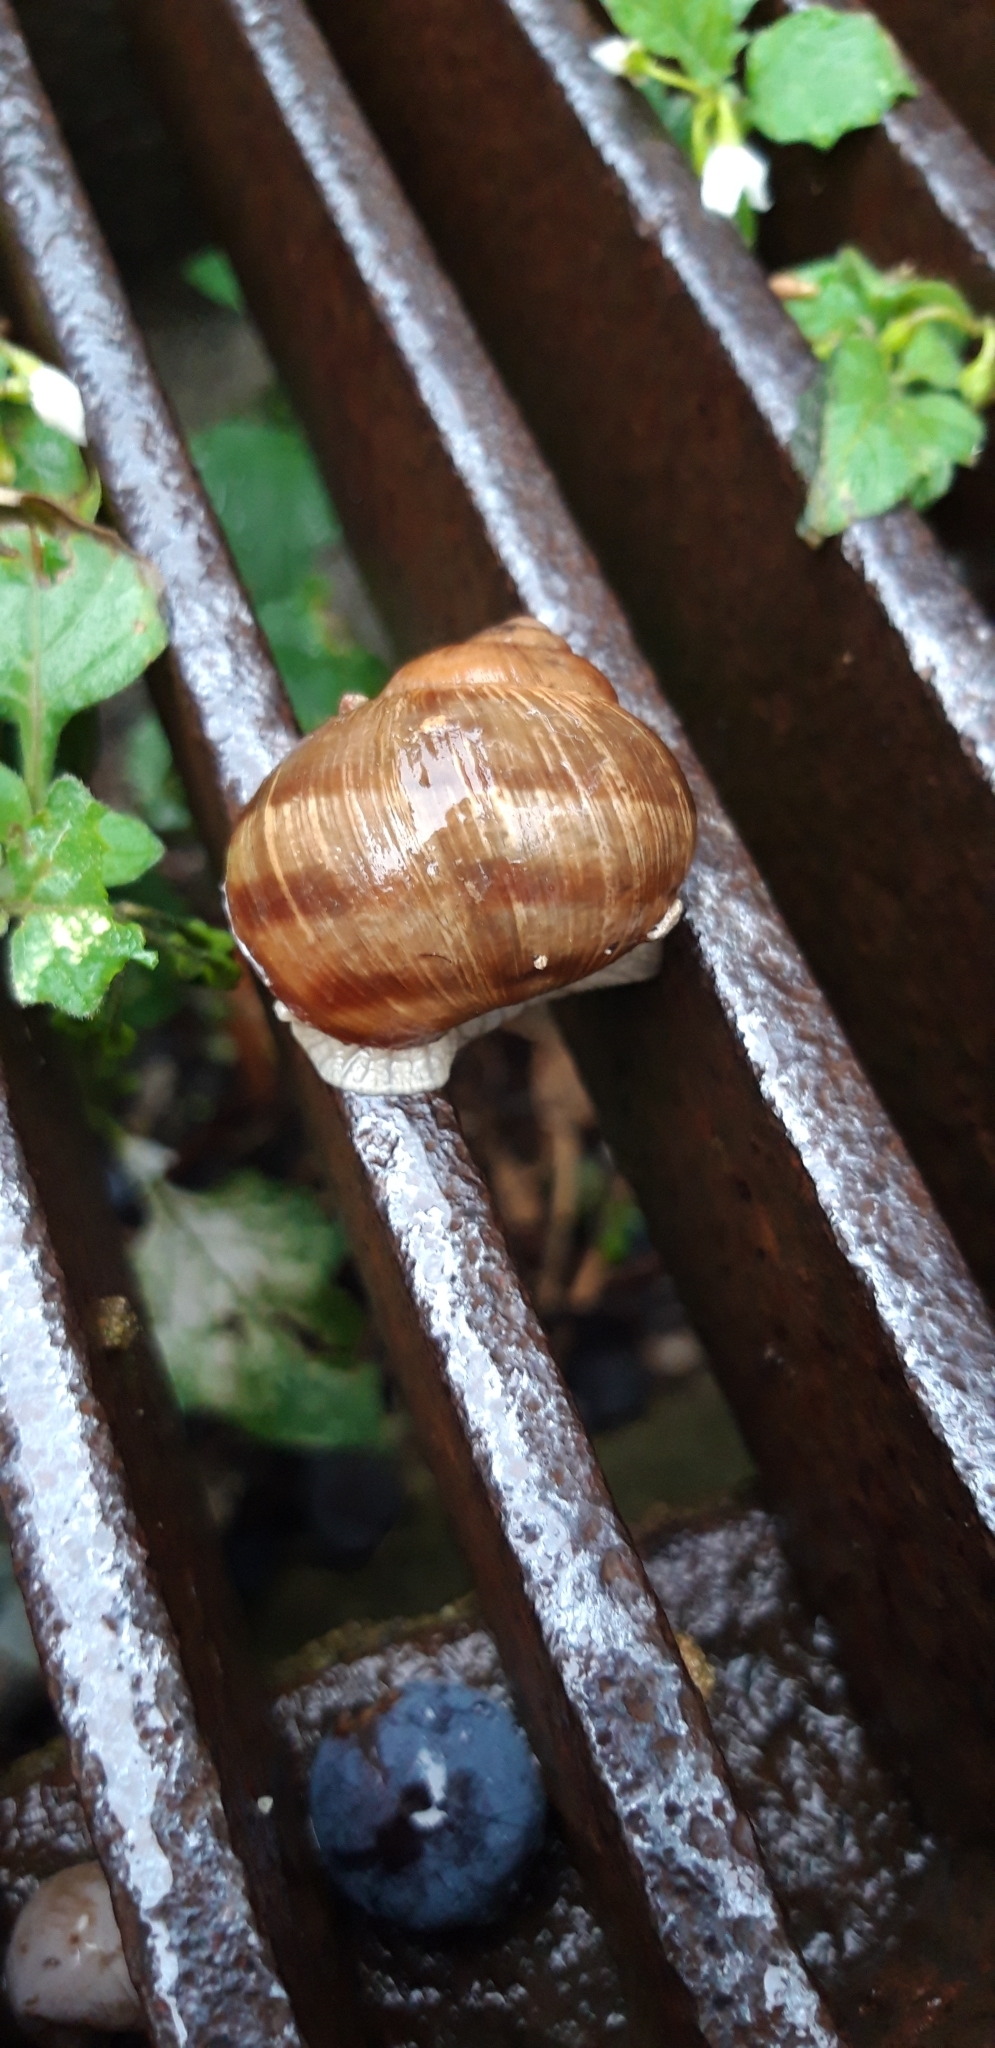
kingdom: Animalia
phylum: Mollusca
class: Gastropoda
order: Stylommatophora
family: Helicidae
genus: Helix
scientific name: Helix pomatia
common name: Roman snail
